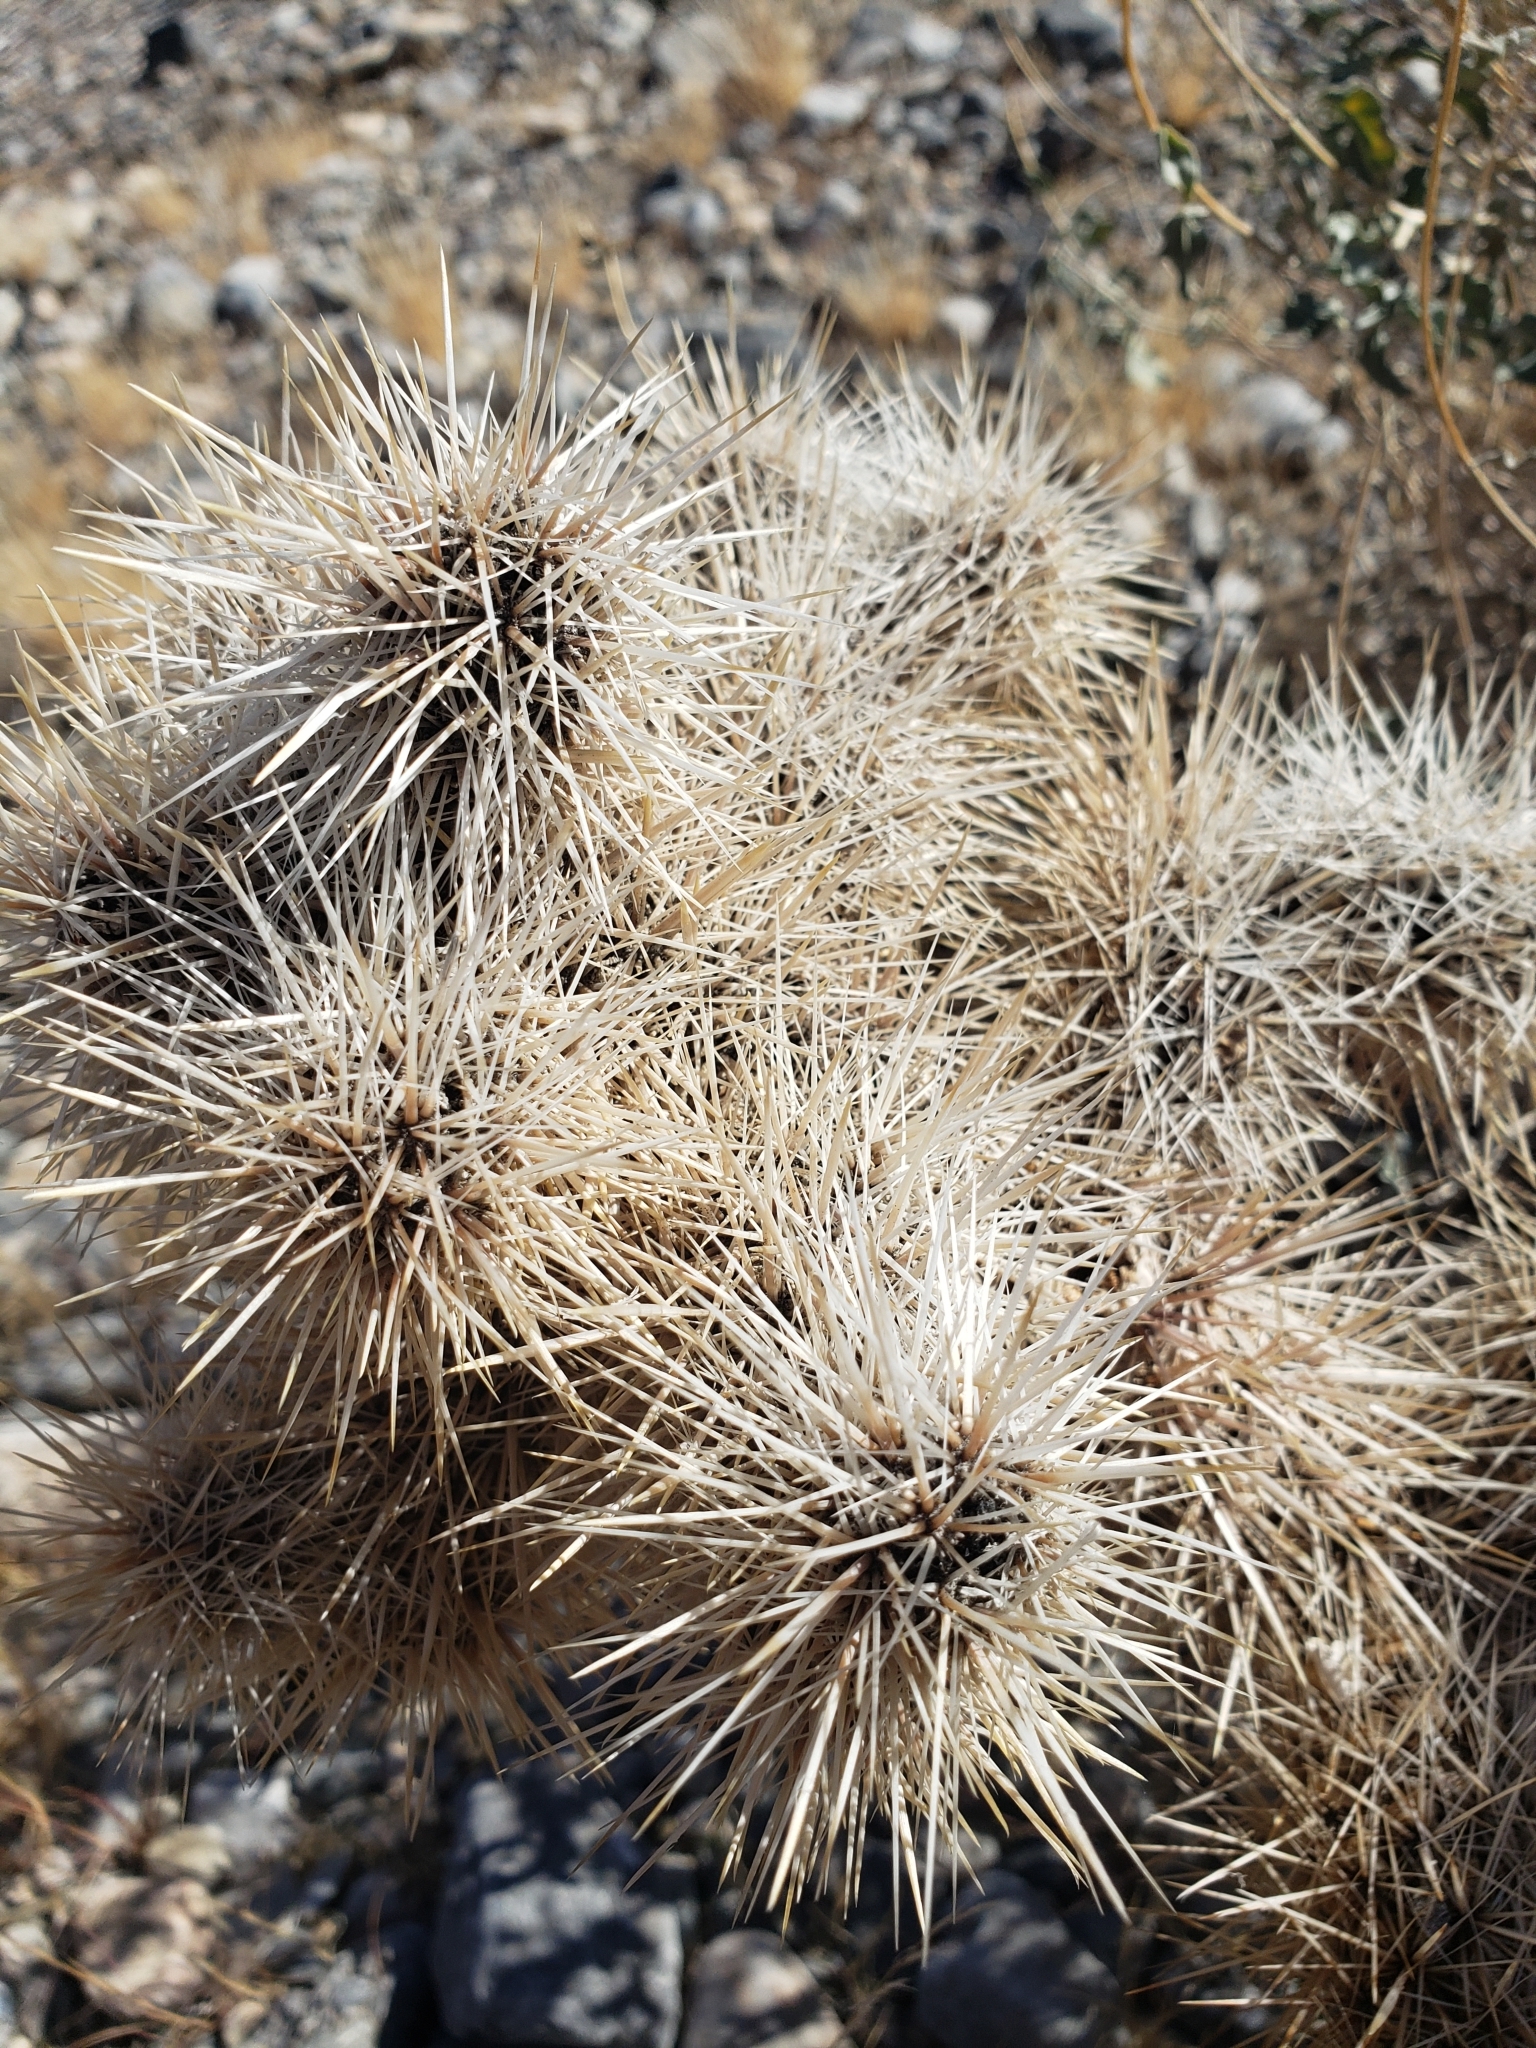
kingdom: Plantae
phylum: Tracheophyta
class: Magnoliopsida
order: Caryophyllales
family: Cactaceae
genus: Cylindropuntia
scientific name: Cylindropuntia echinocarpa
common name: Ground cholla
